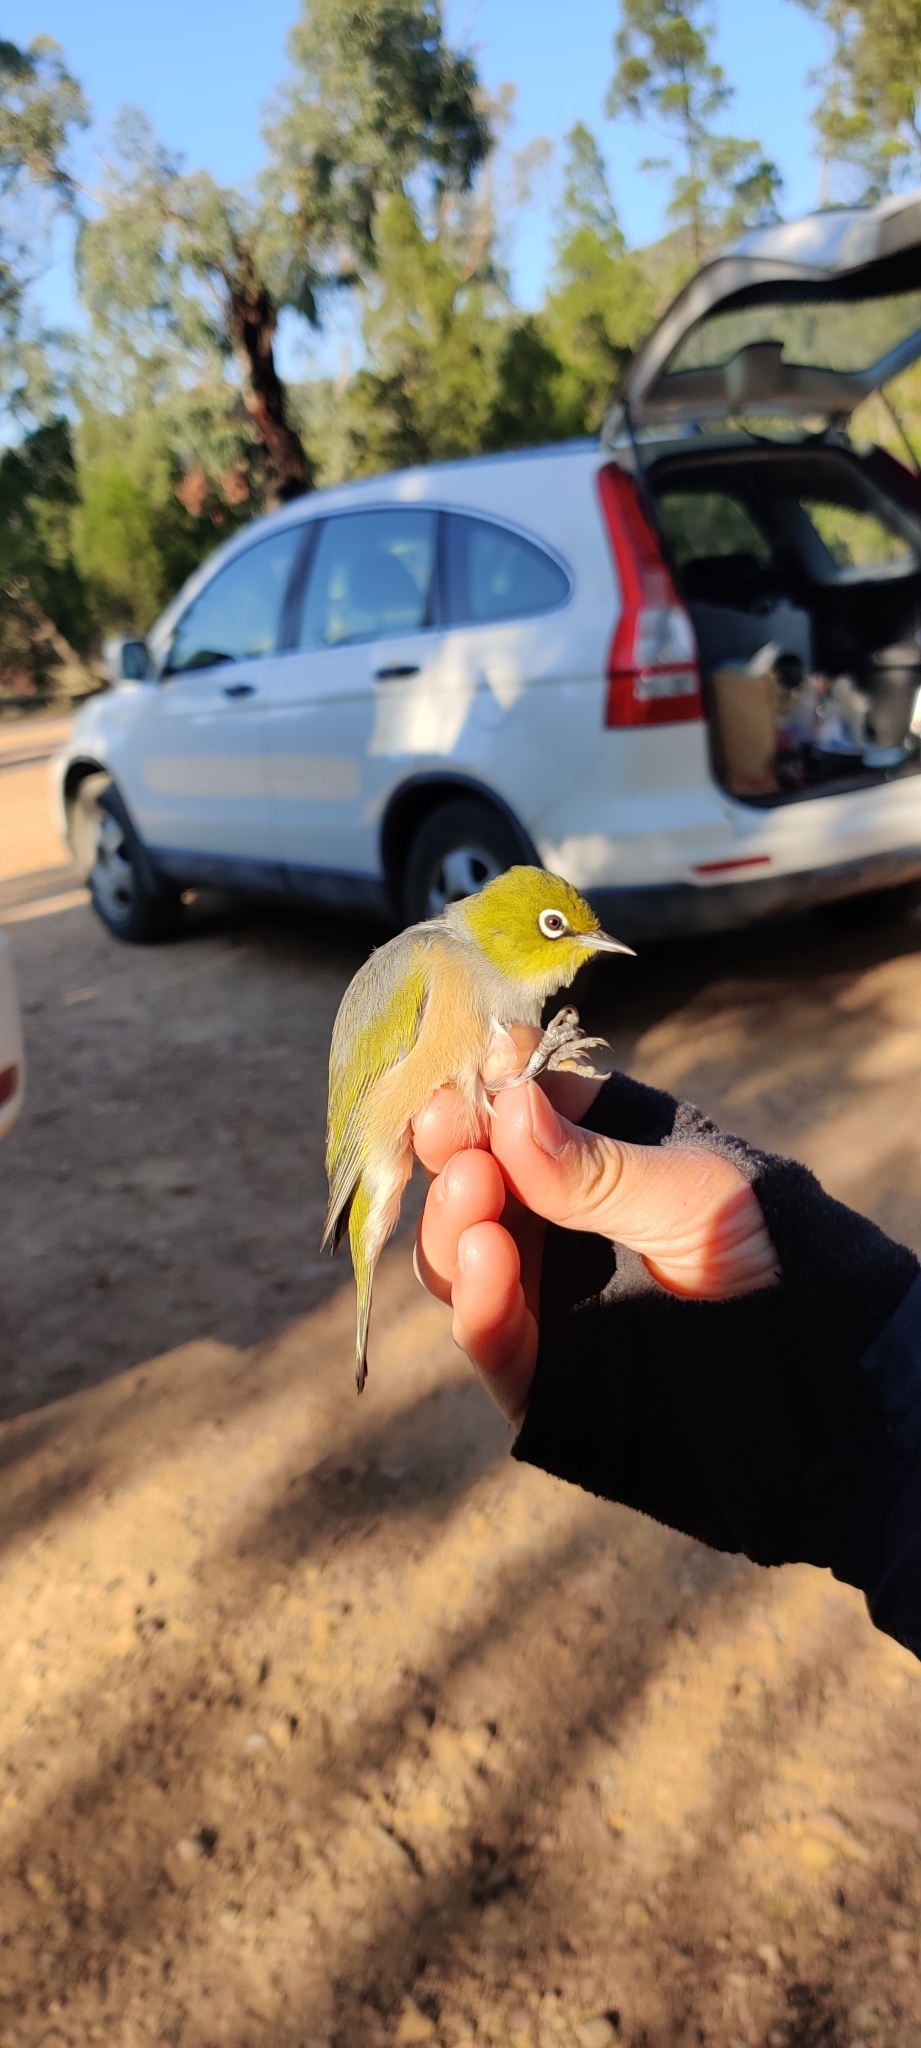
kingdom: Animalia
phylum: Chordata
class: Aves
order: Passeriformes
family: Zosteropidae
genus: Zosterops
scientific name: Zosterops lateralis
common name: Silvereye
